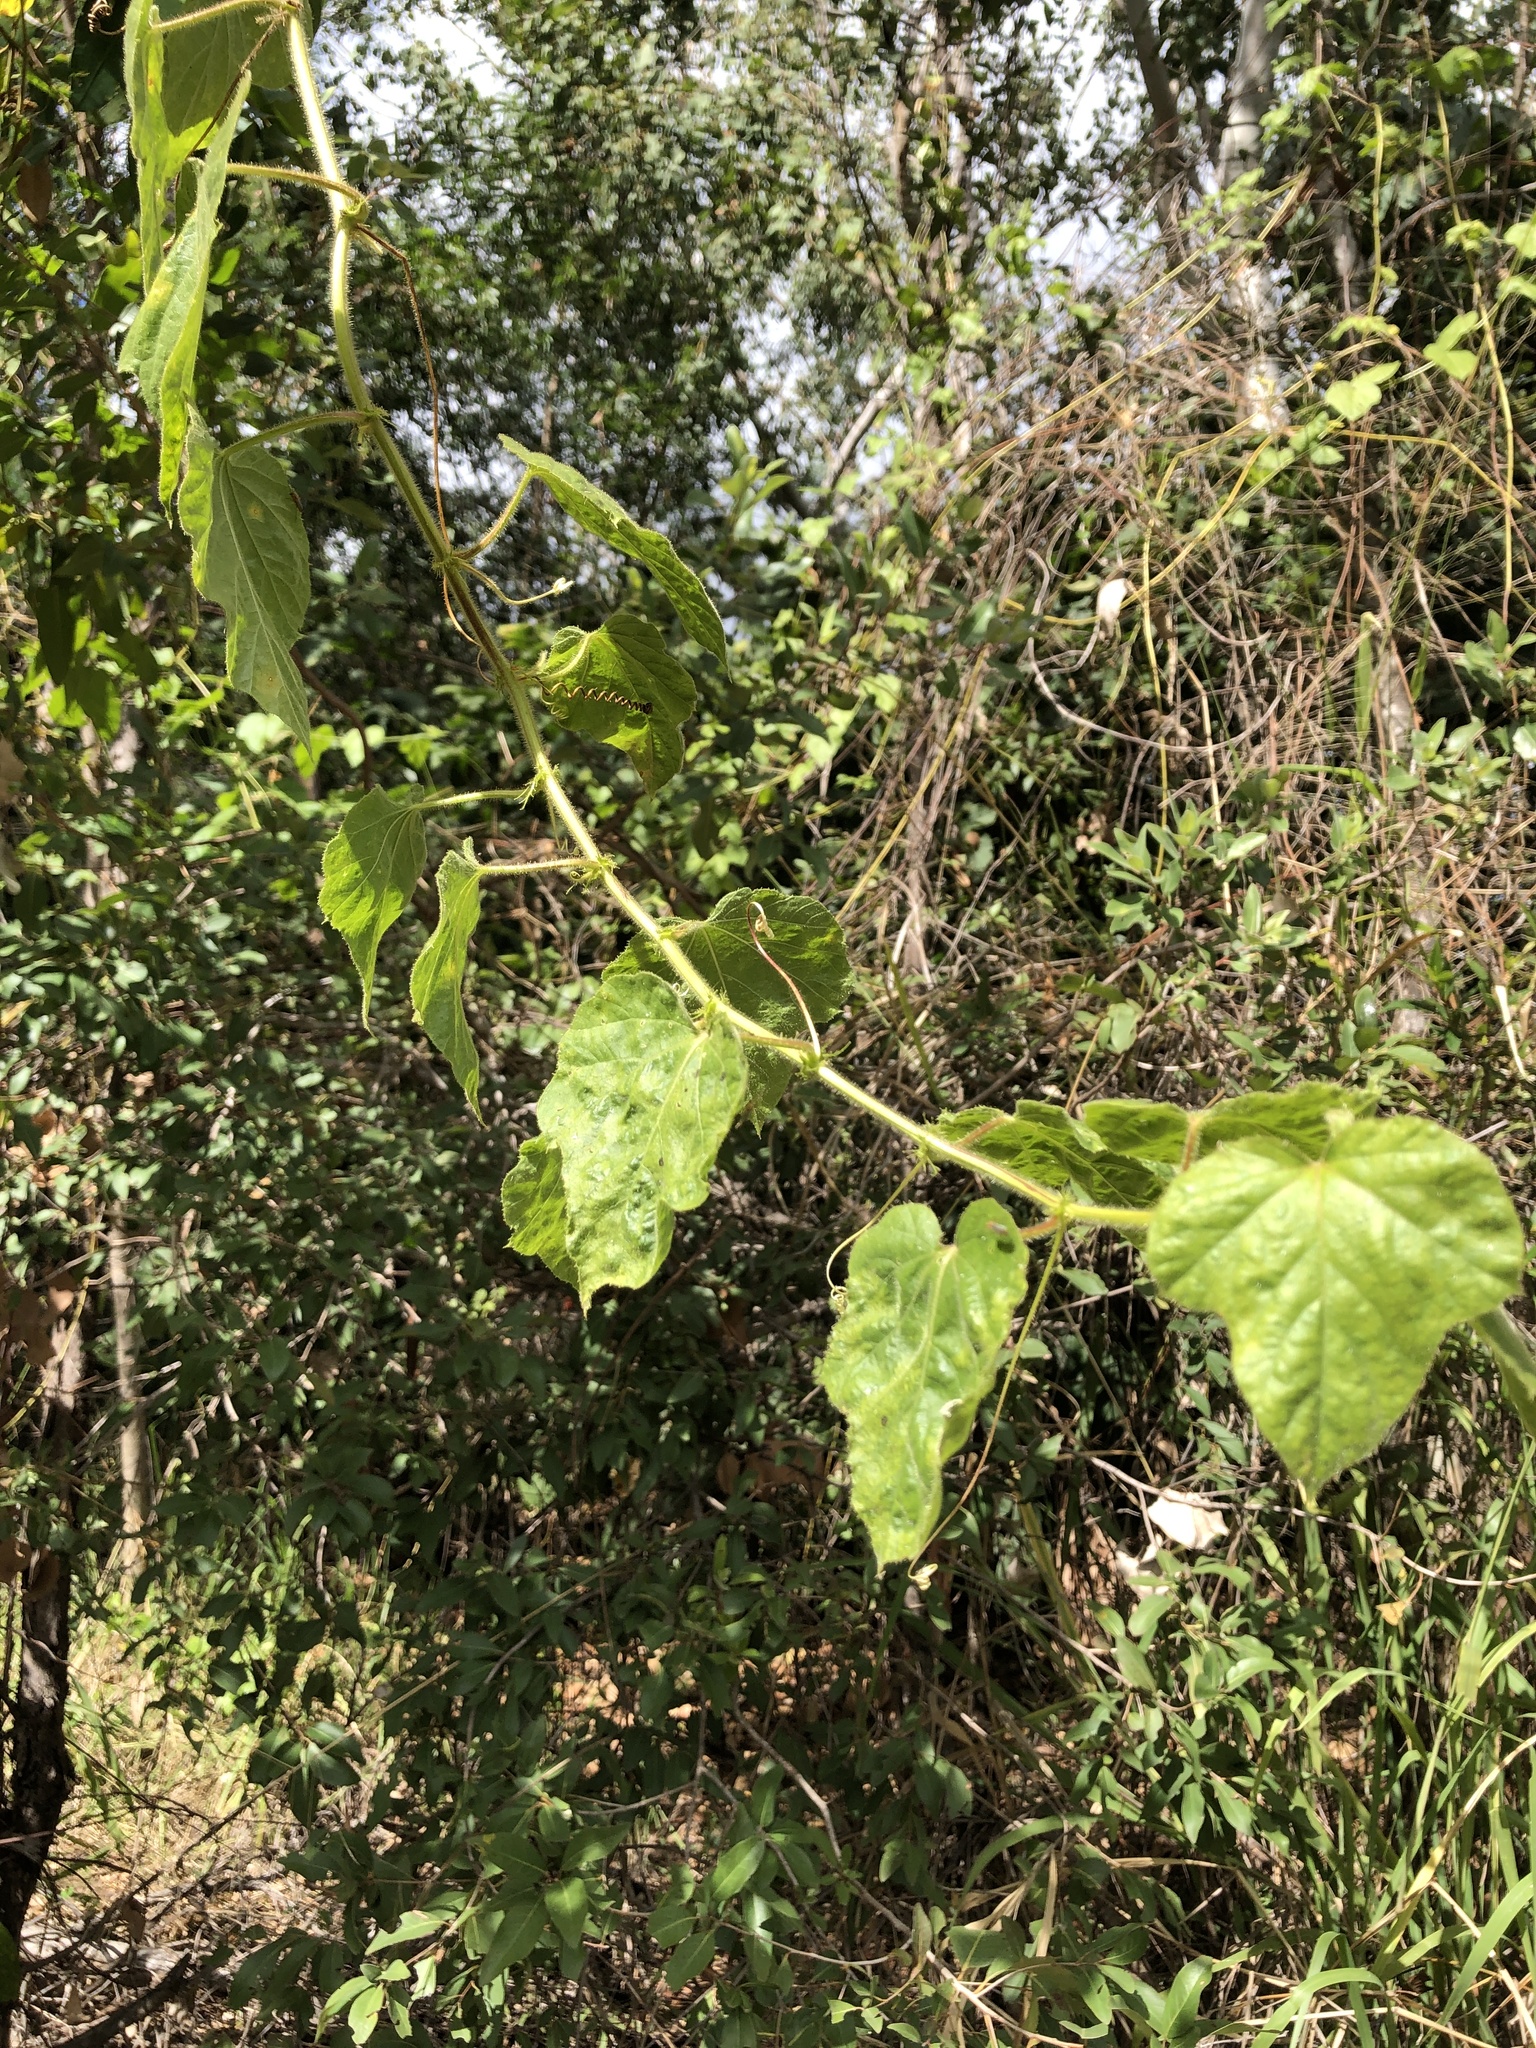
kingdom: Plantae
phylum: Tracheophyta
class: Magnoliopsida
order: Malpighiales
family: Passifloraceae
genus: Passiflora
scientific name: Passiflora foetida
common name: Fetid passionflower
